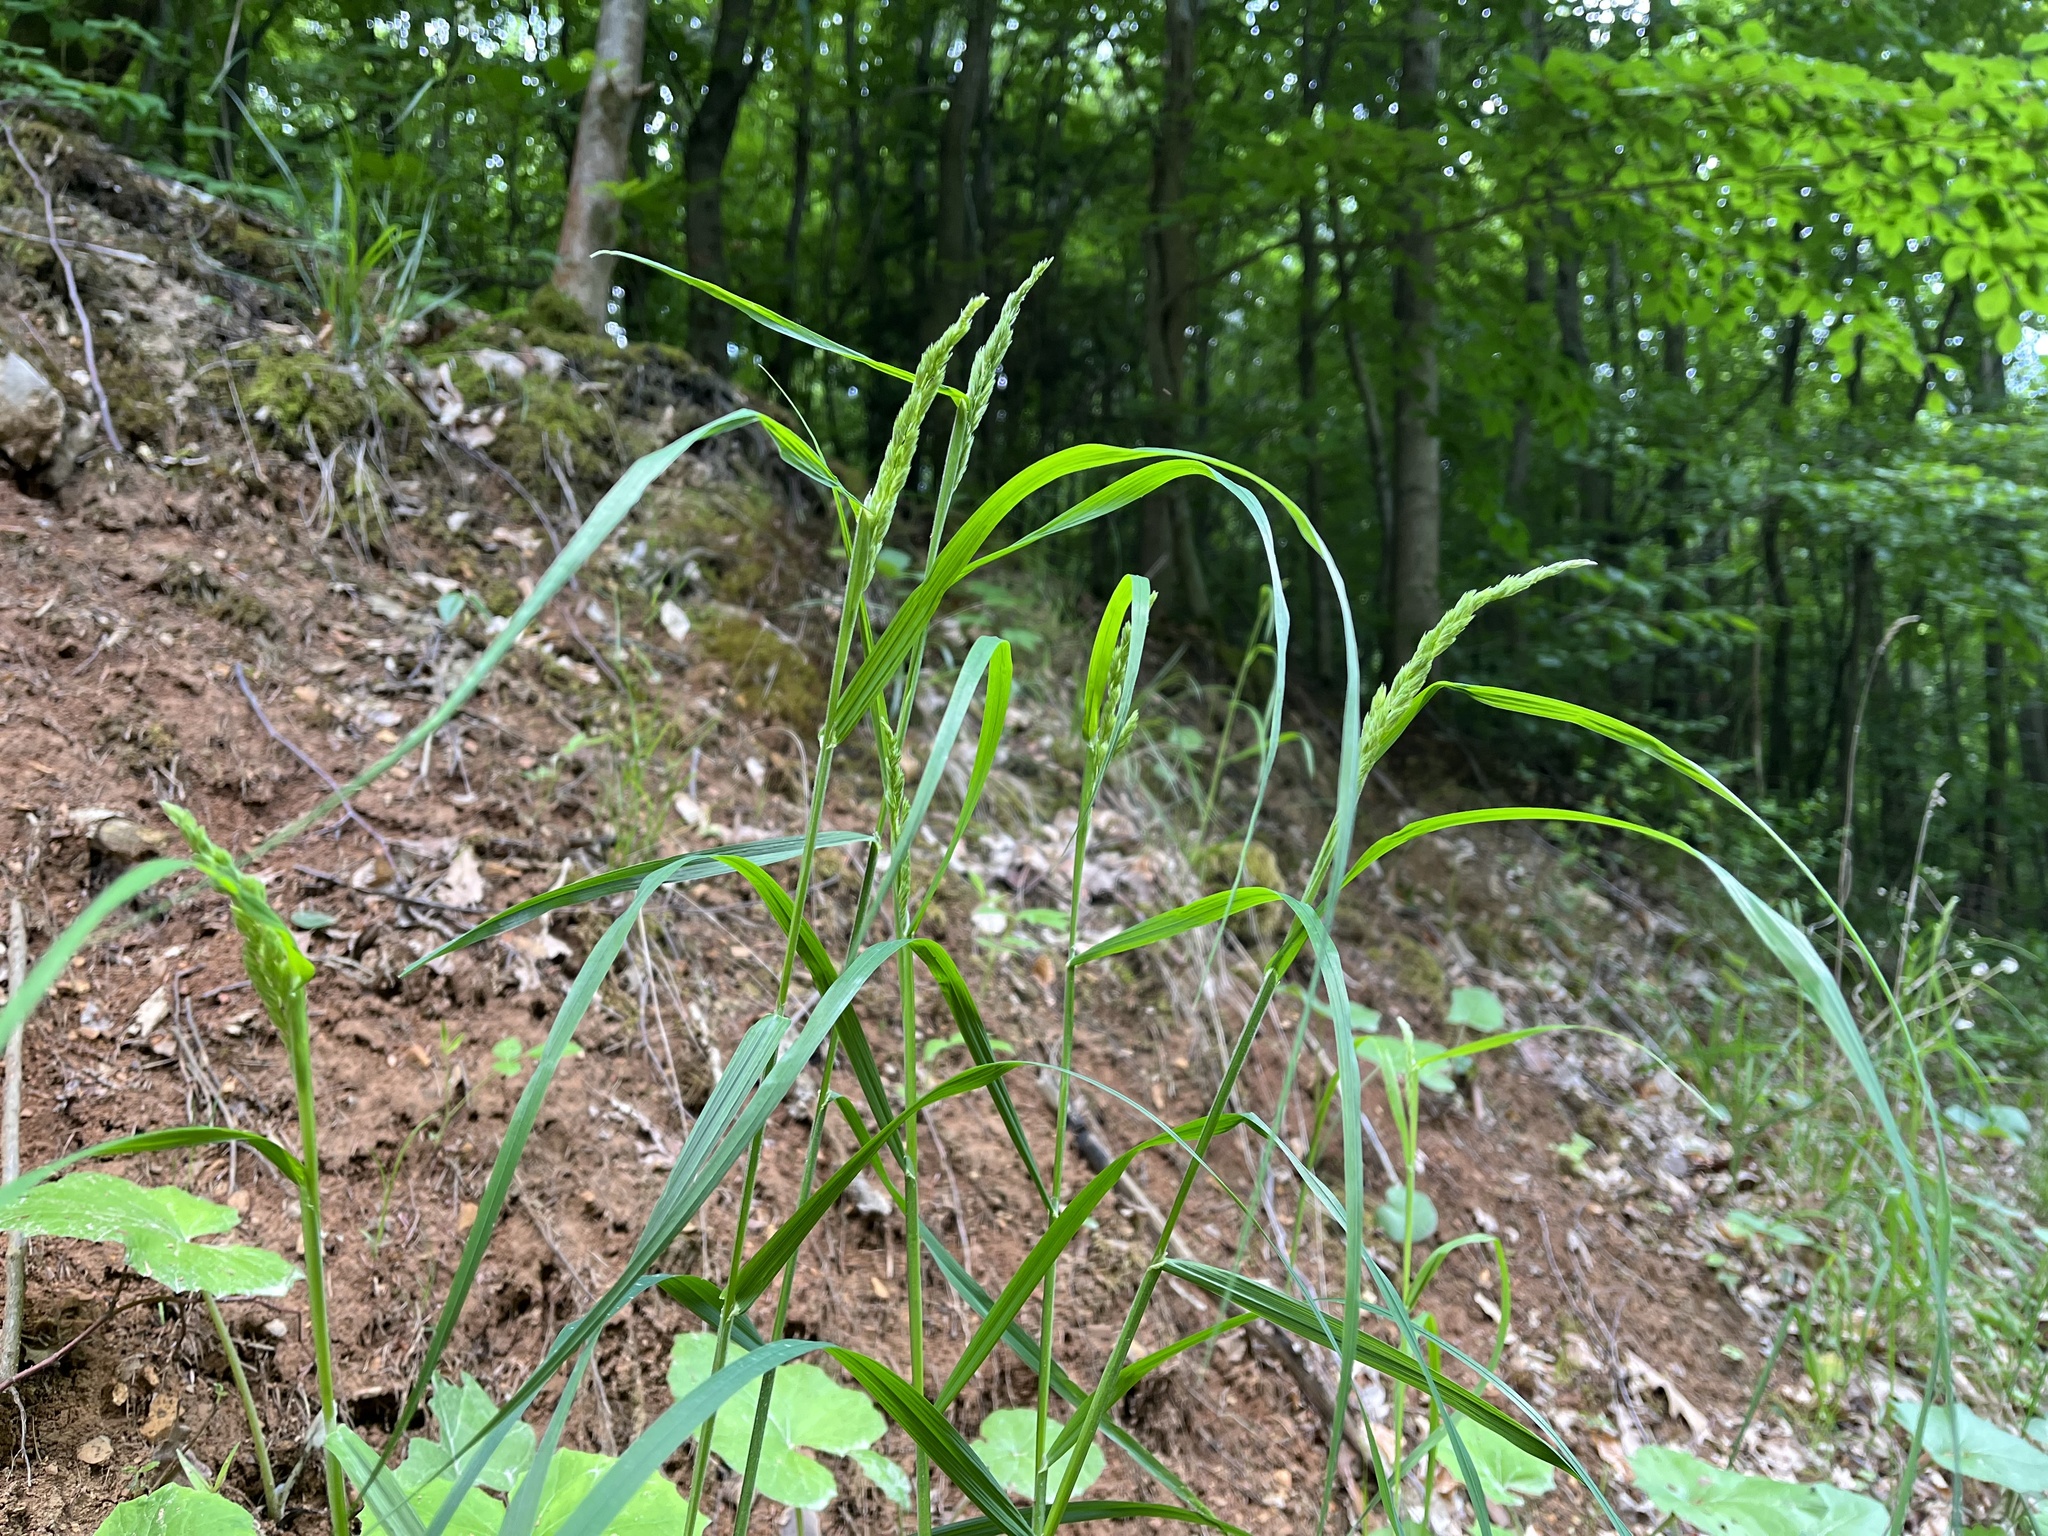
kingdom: Plantae
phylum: Tracheophyta
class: Liliopsida
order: Poales
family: Poaceae
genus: Dactylis
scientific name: Dactylis glomerata
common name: Orchardgrass
